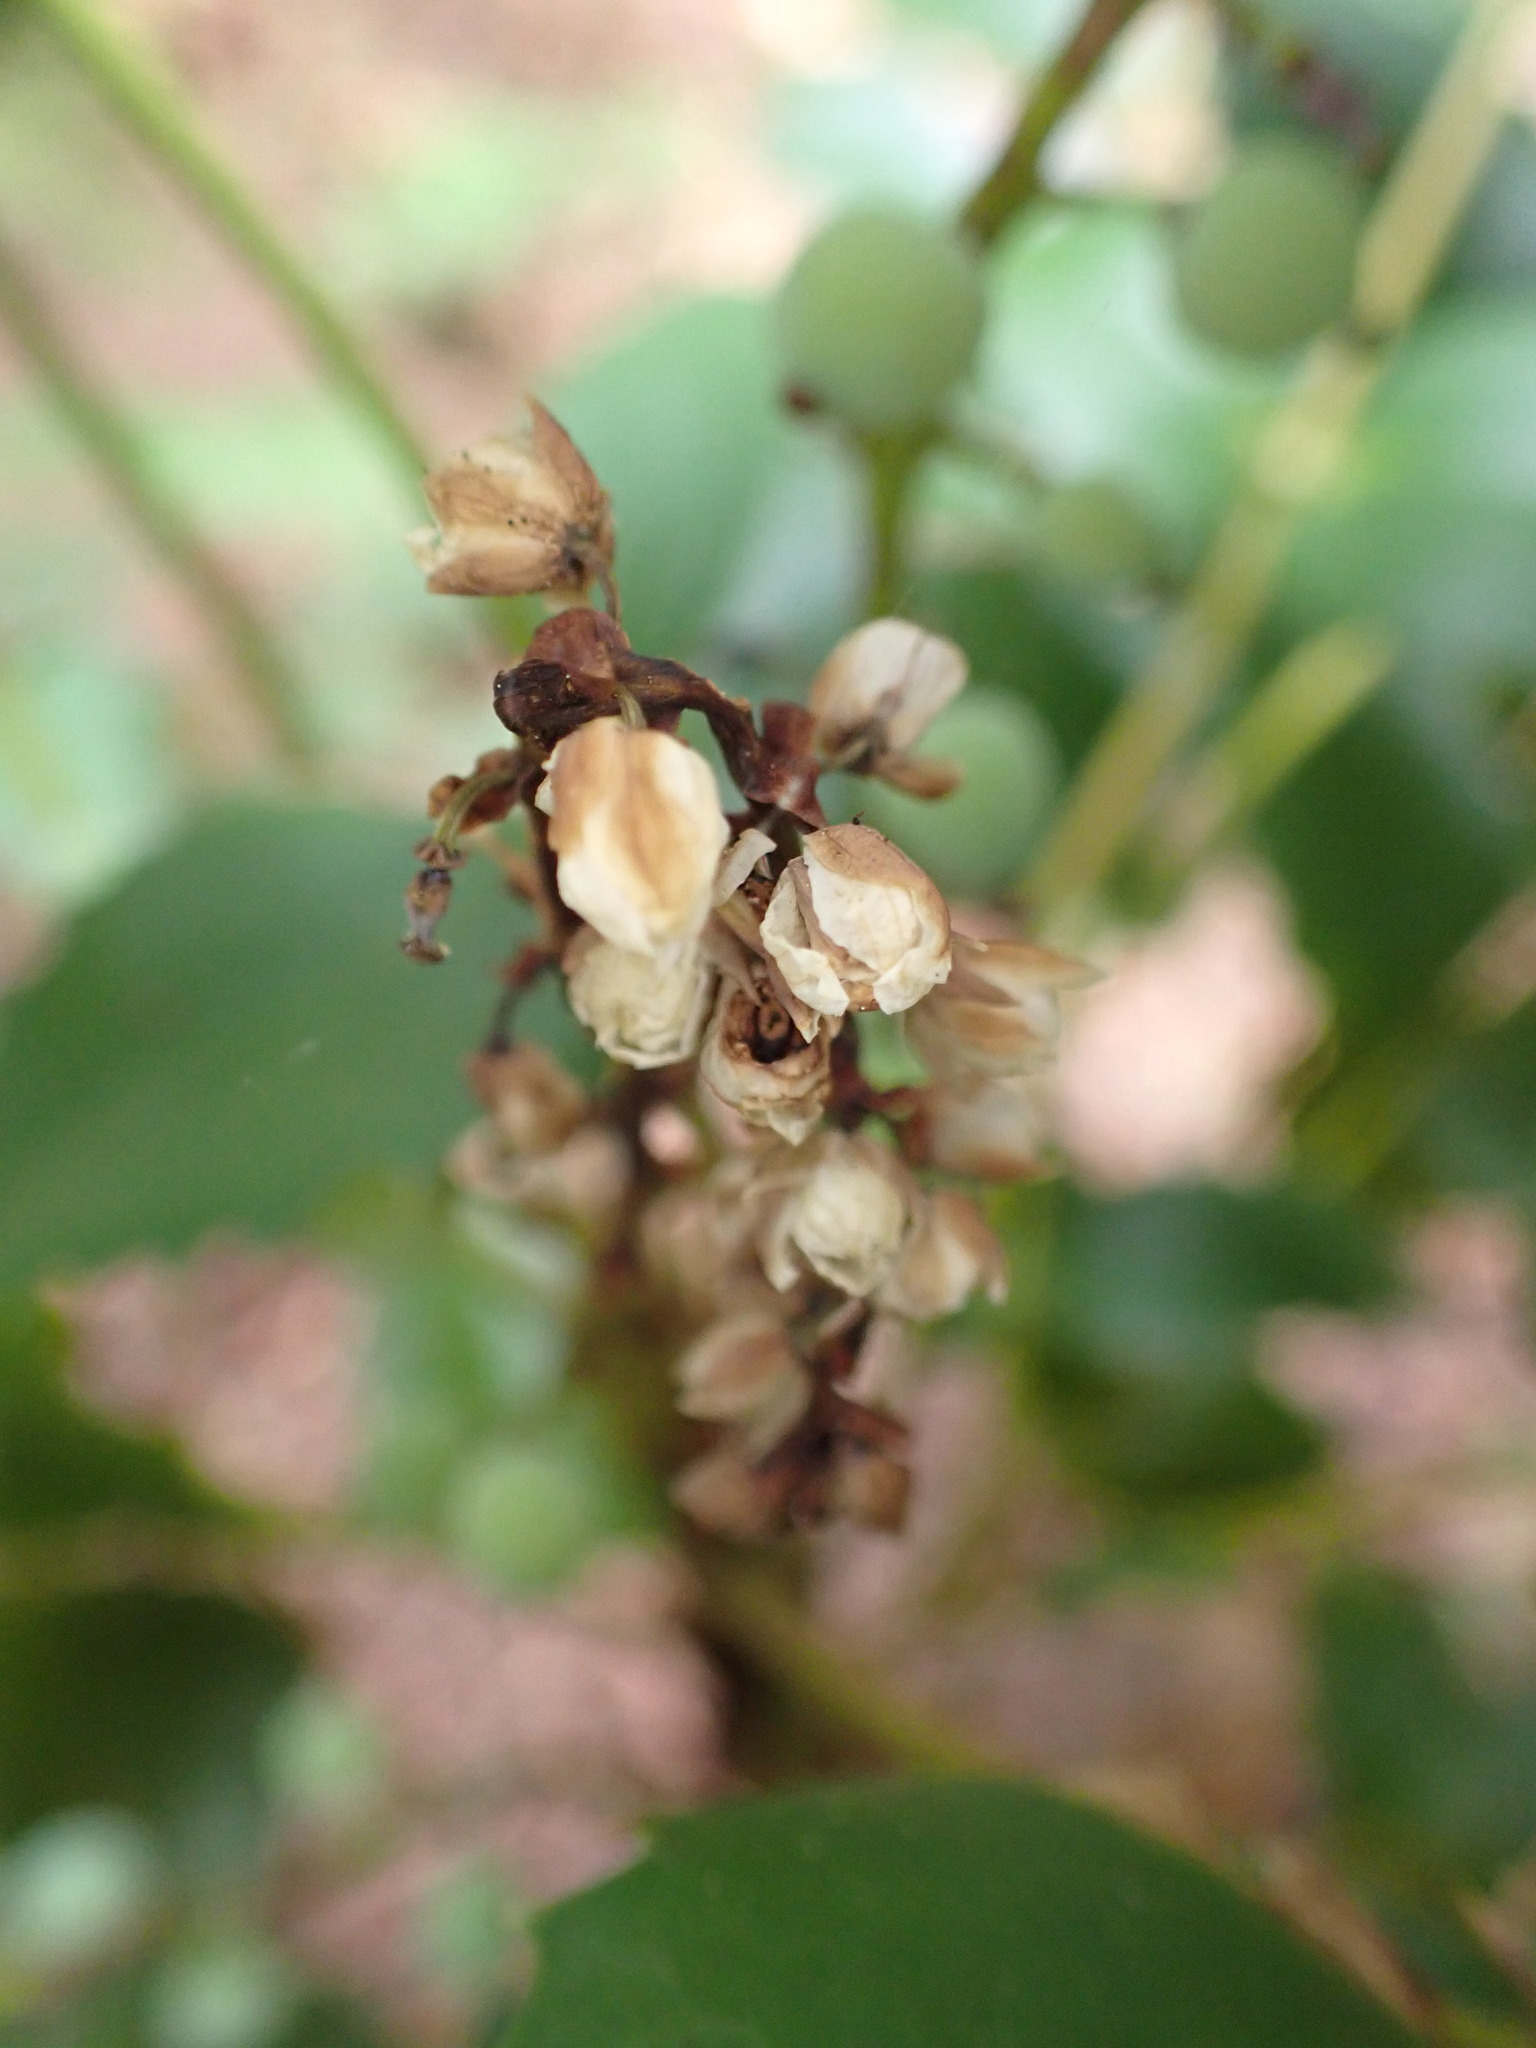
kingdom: Plantae
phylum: Tracheophyta
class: Magnoliopsida
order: Ranunculales
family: Berberidaceae
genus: Mahonia
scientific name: Mahonia nervosa
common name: Cascade oregon-grape
